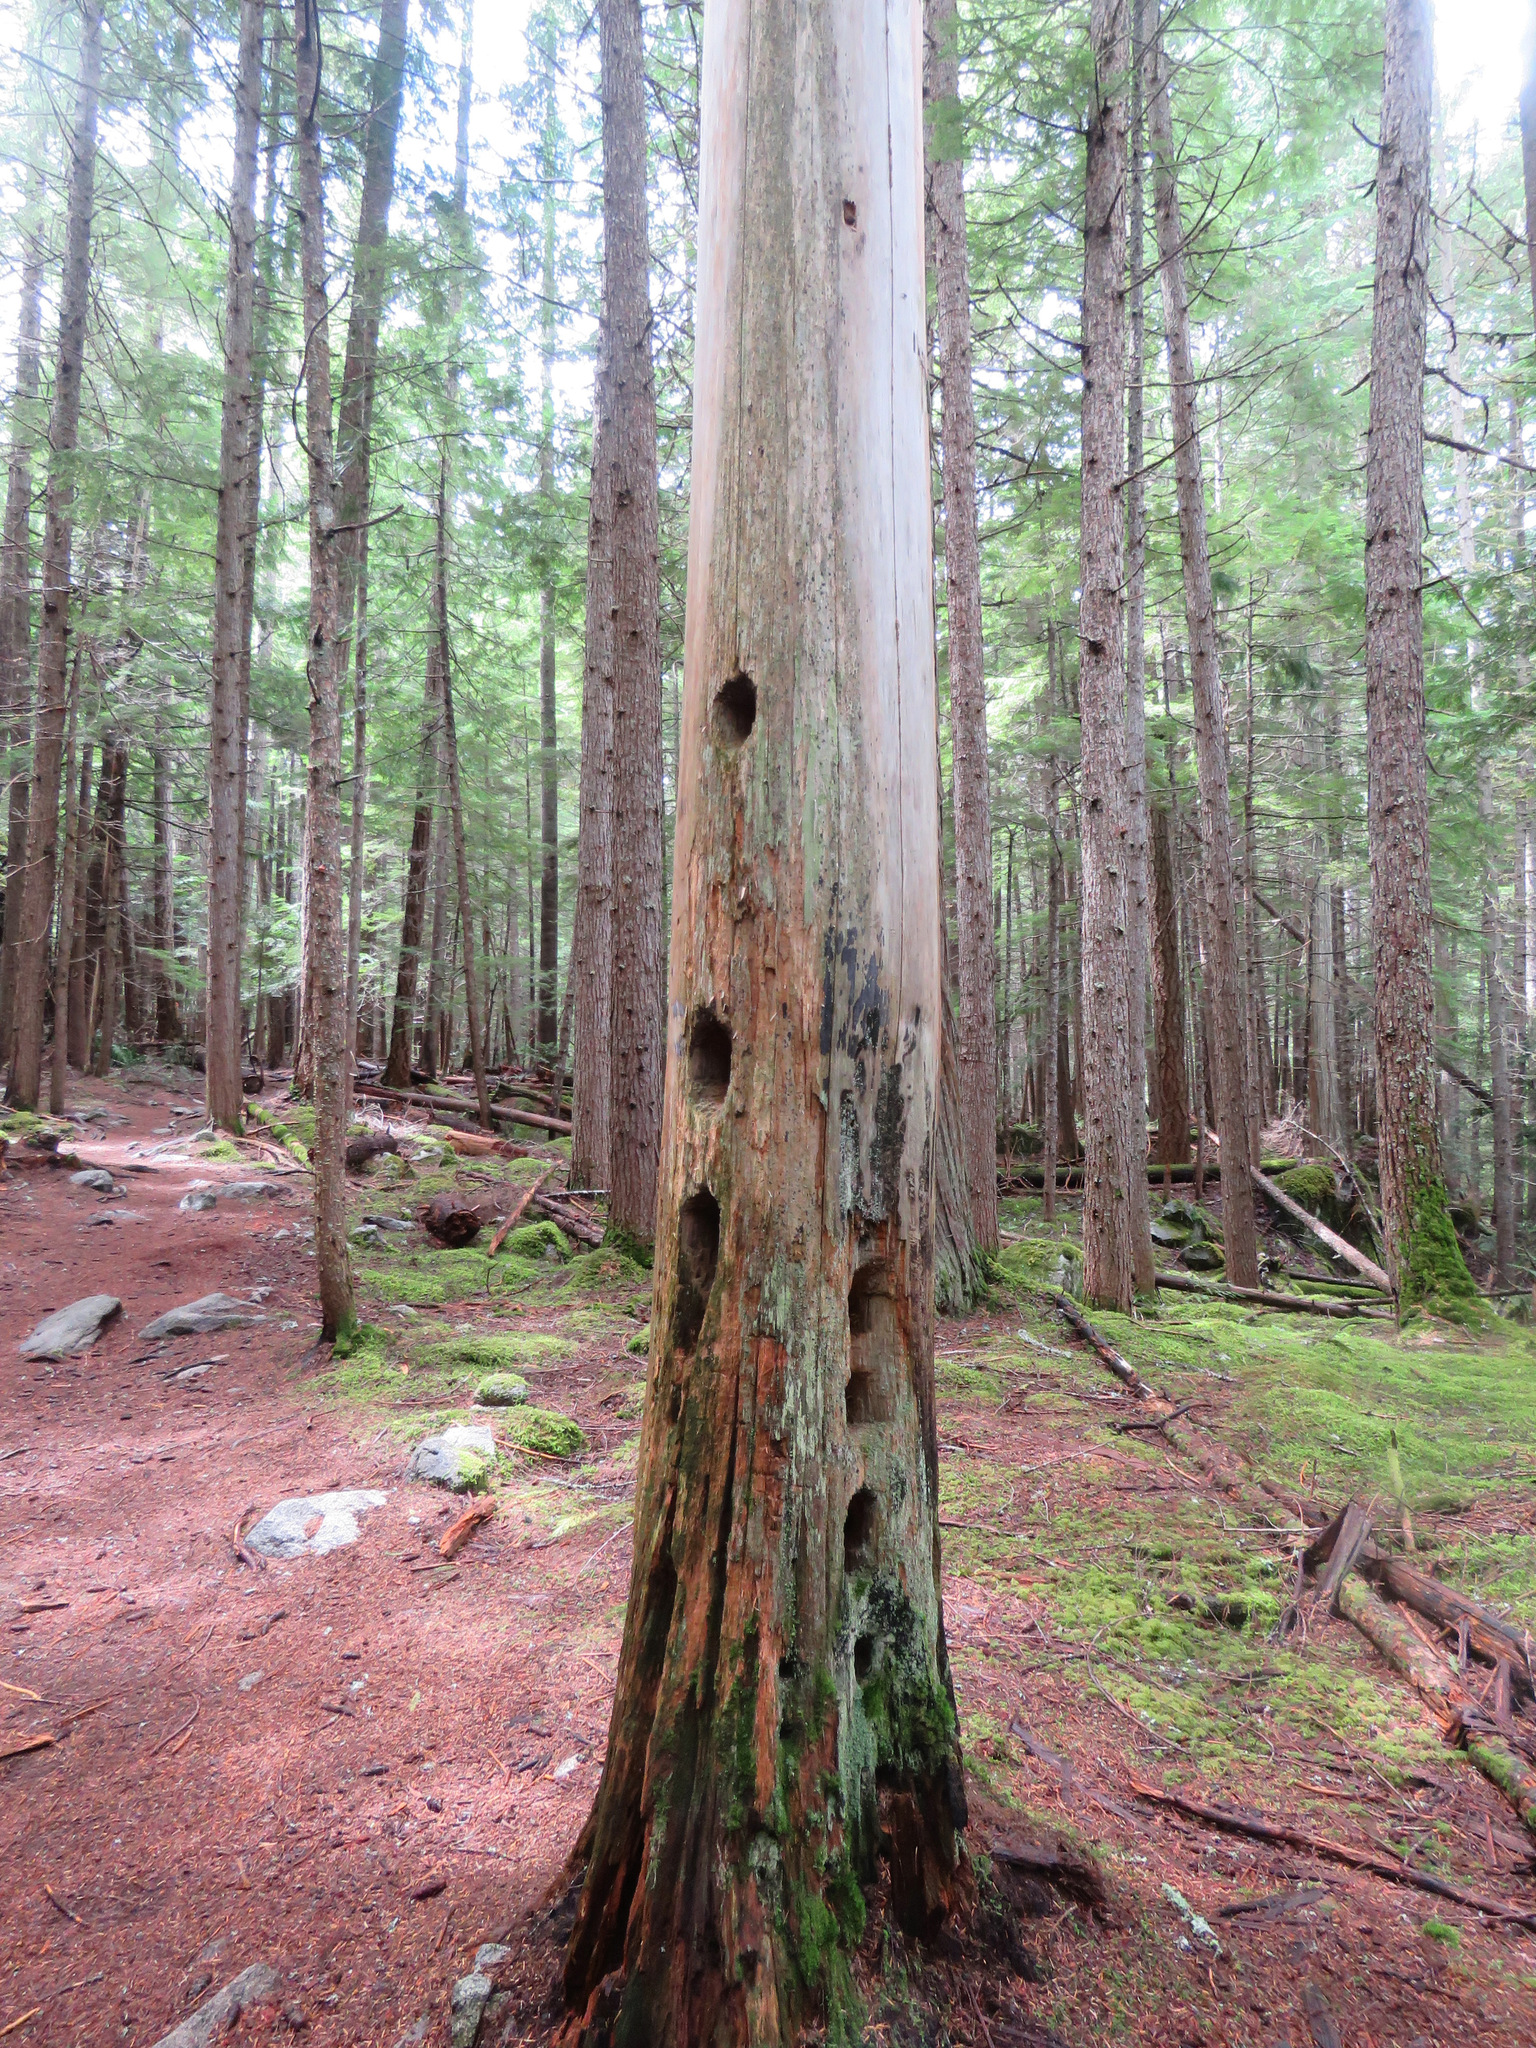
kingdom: Animalia
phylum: Chordata
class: Aves
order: Piciformes
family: Picidae
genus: Dryocopus
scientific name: Dryocopus pileatus
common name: Pileated woodpecker
